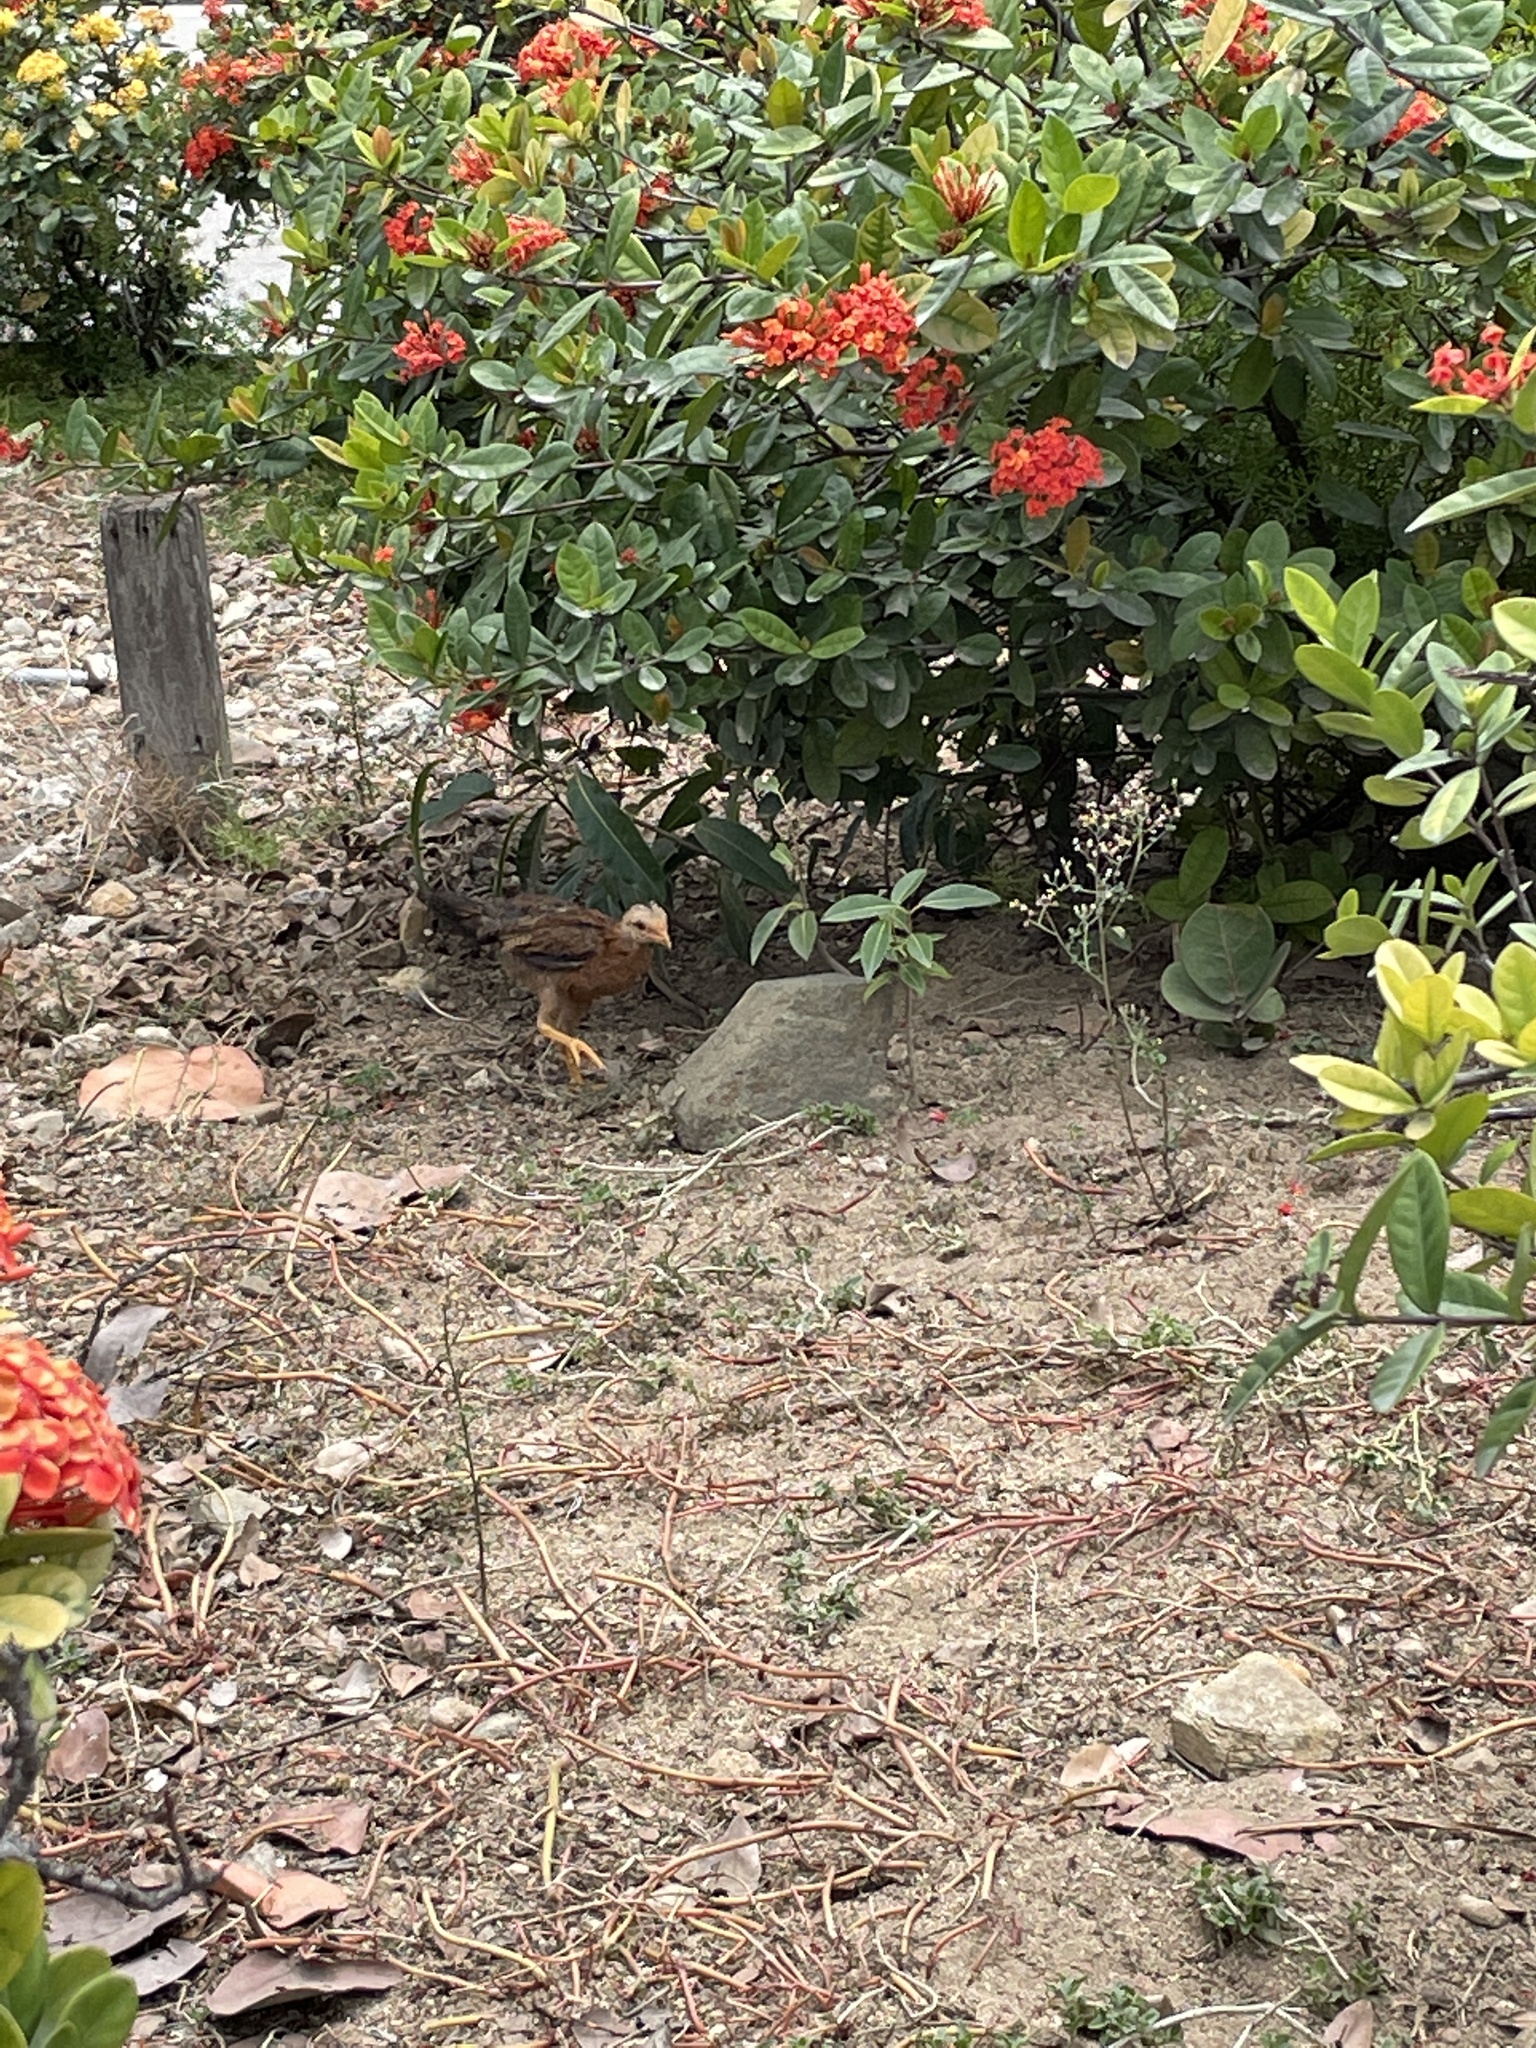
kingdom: Animalia
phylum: Chordata
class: Aves
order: Galliformes
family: Phasianidae
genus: Gallus
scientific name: Gallus gallus
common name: Red junglefowl
